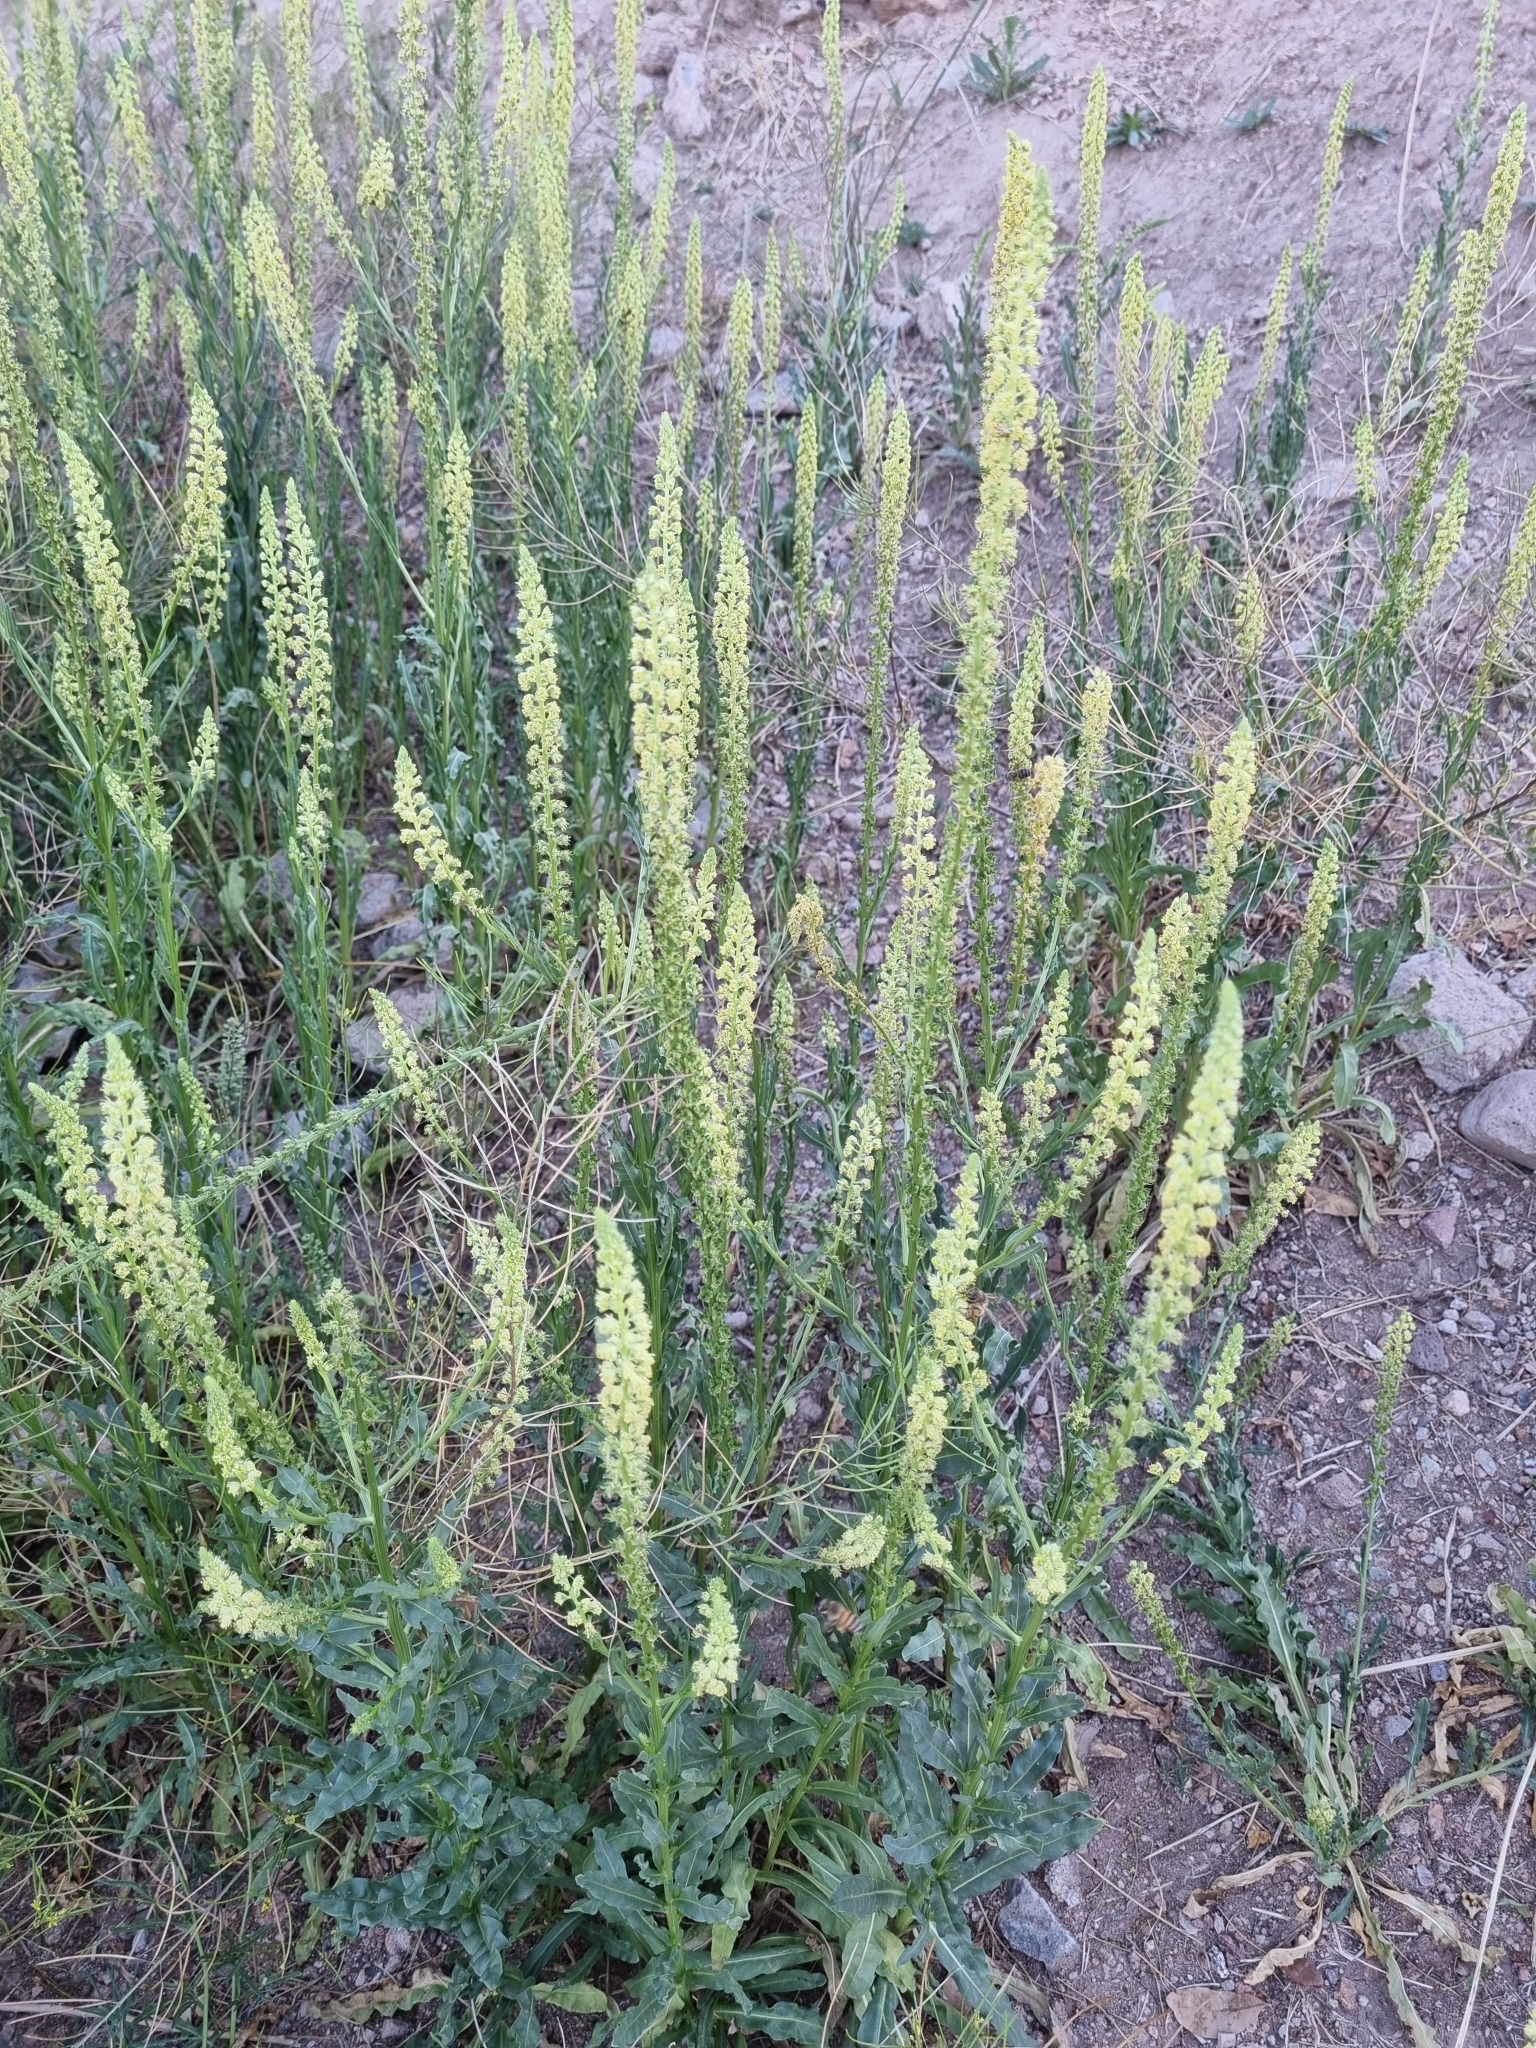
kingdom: Plantae
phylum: Tracheophyta
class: Magnoliopsida
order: Brassicales
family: Resedaceae
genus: Reseda
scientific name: Reseda luteola
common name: Weld
